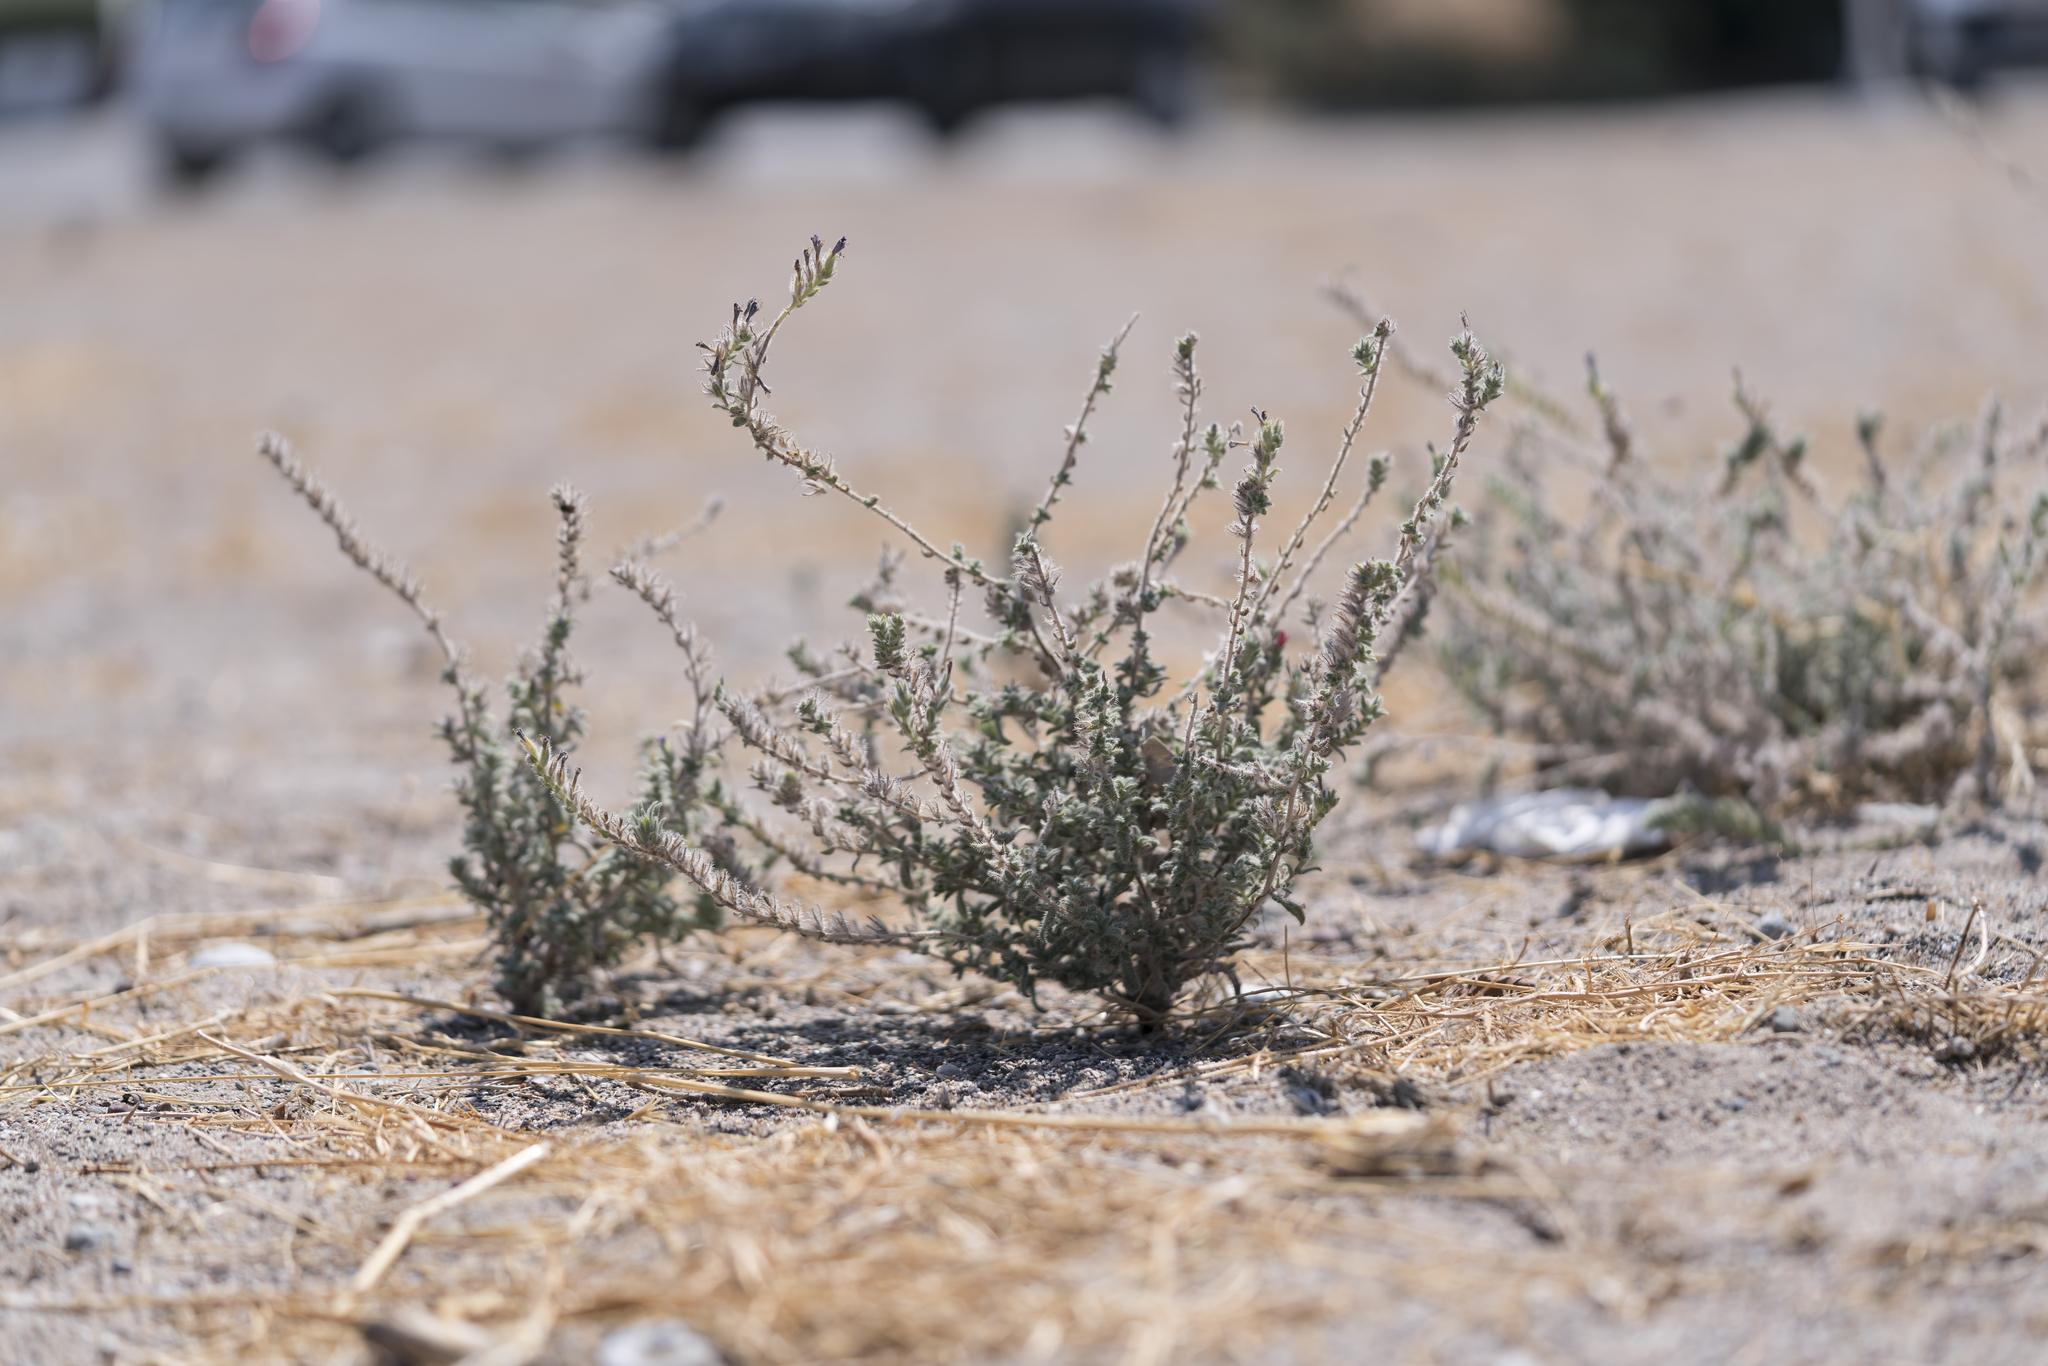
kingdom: Plantae
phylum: Tracheophyta
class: Magnoliopsida
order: Boraginales
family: Boraginaceae
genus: Echium
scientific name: Echium angustifolium
